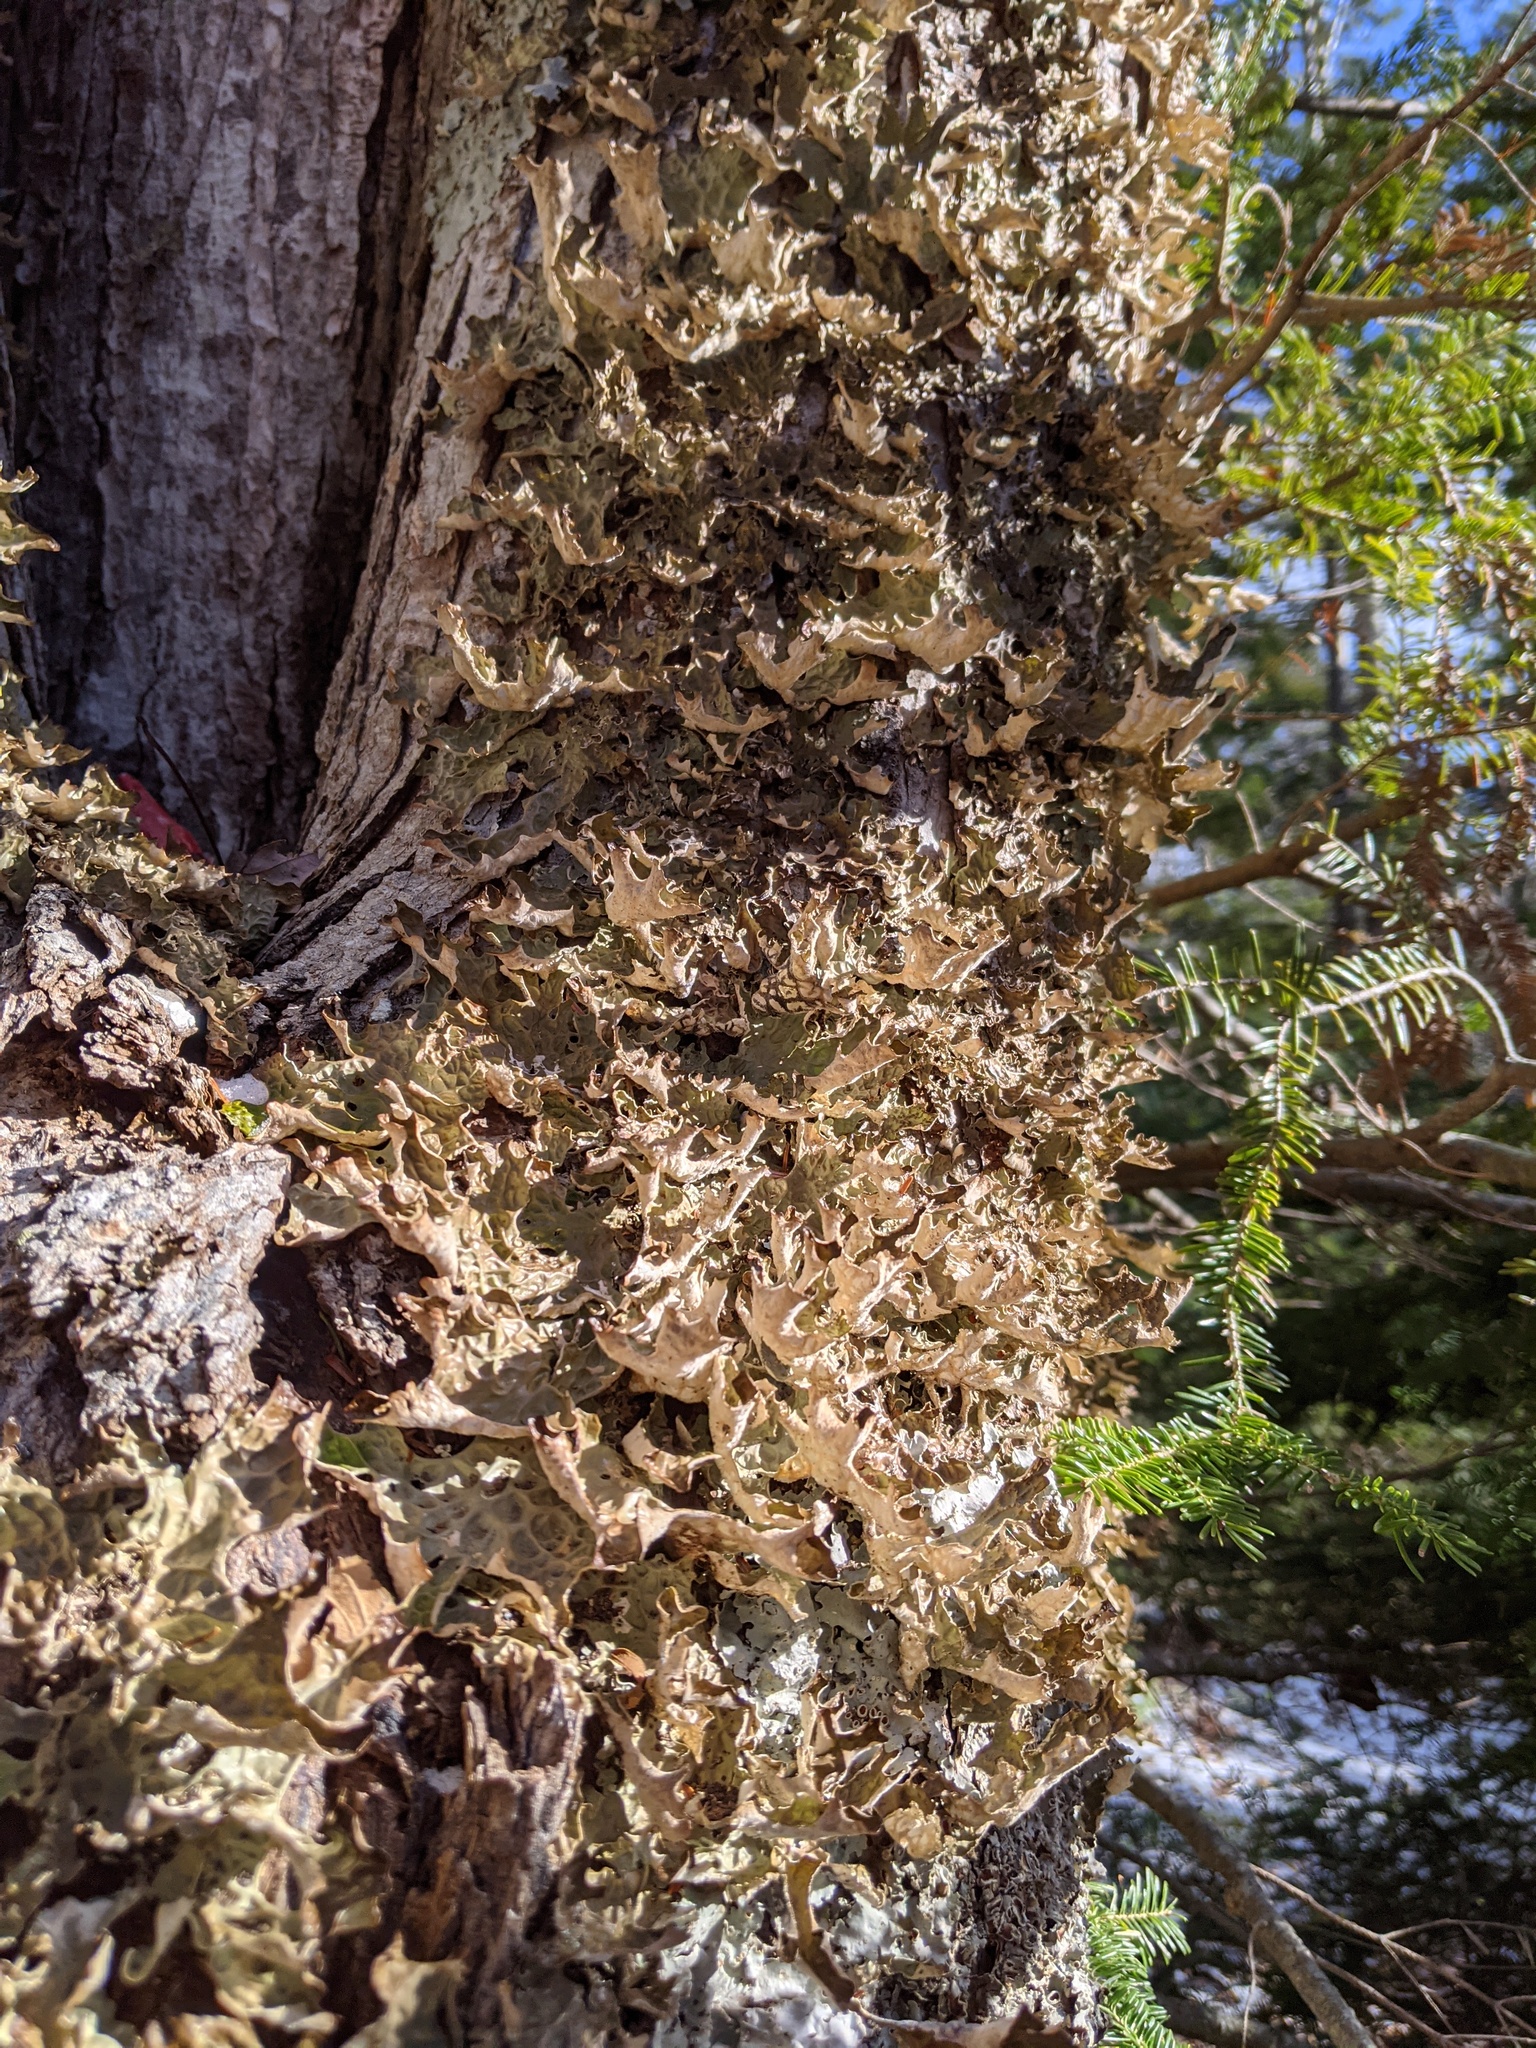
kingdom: Fungi
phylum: Ascomycota
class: Lecanoromycetes
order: Peltigerales
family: Lobariaceae
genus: Lobaria
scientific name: Lobaria pulmonaria
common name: Lungwort
